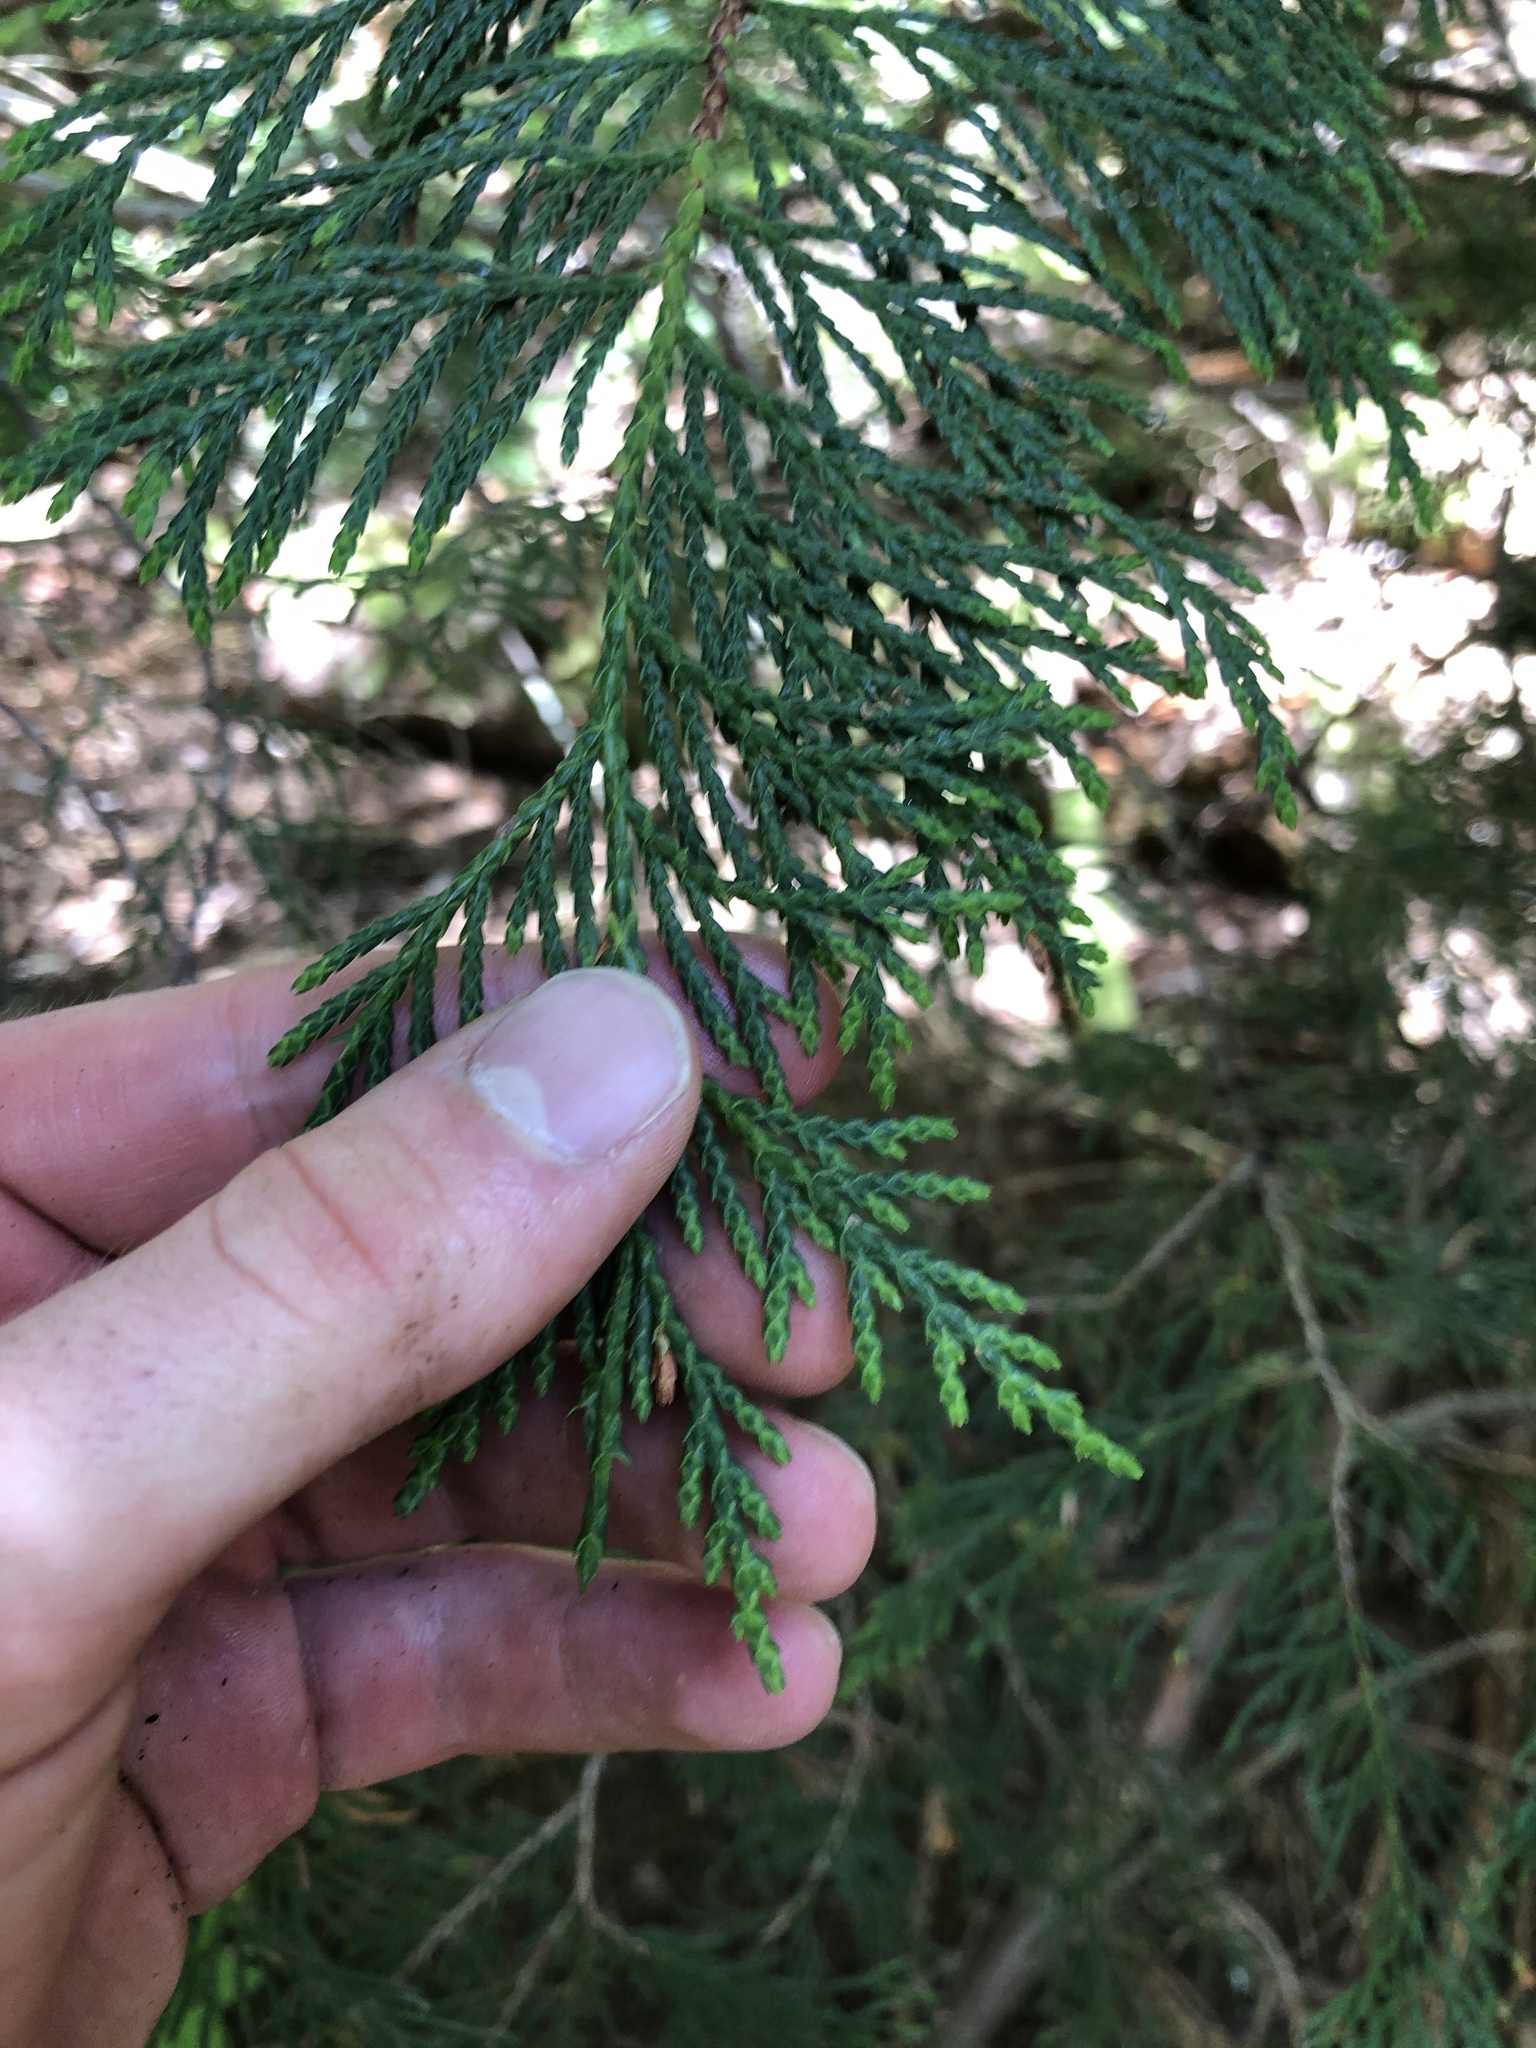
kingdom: Plantae
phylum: Tracheophyta
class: Pinopsida
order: Pinales
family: Cupressaceae
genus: Xanthocyparis
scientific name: Xanthocyparis nootkatensis
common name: Nootka cypress
